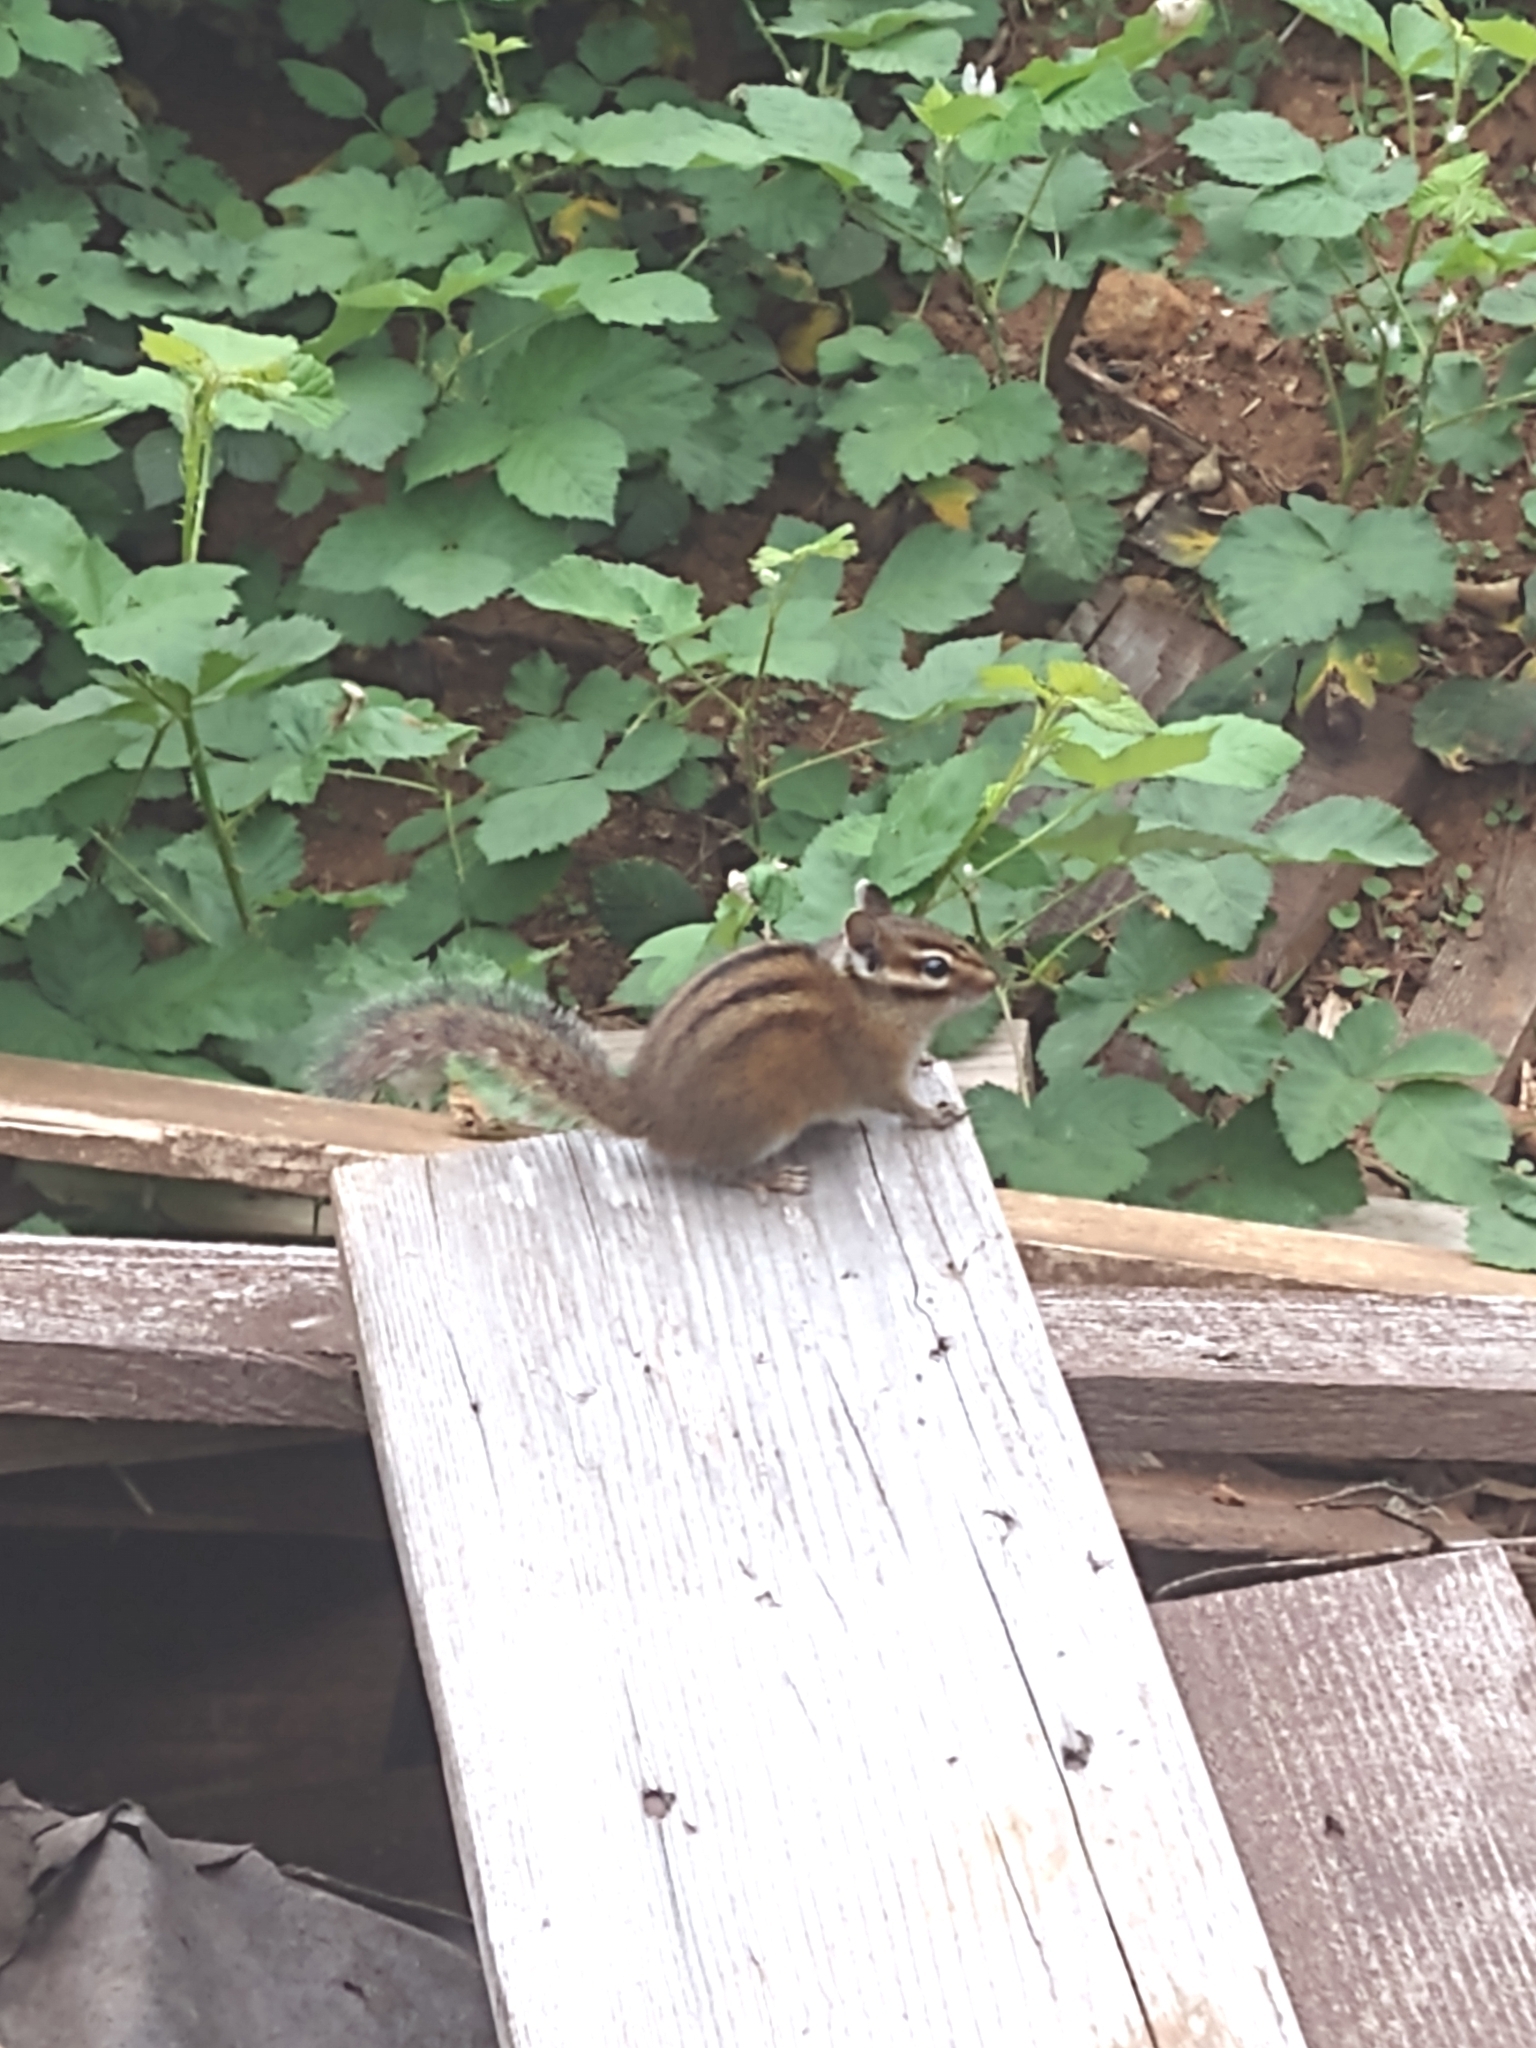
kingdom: Animalia
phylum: Chordata
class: Mammalia
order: Rodentia
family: Sciuridae
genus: Tamias
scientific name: Tamias townsendii
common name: Townsend's chipmunk
